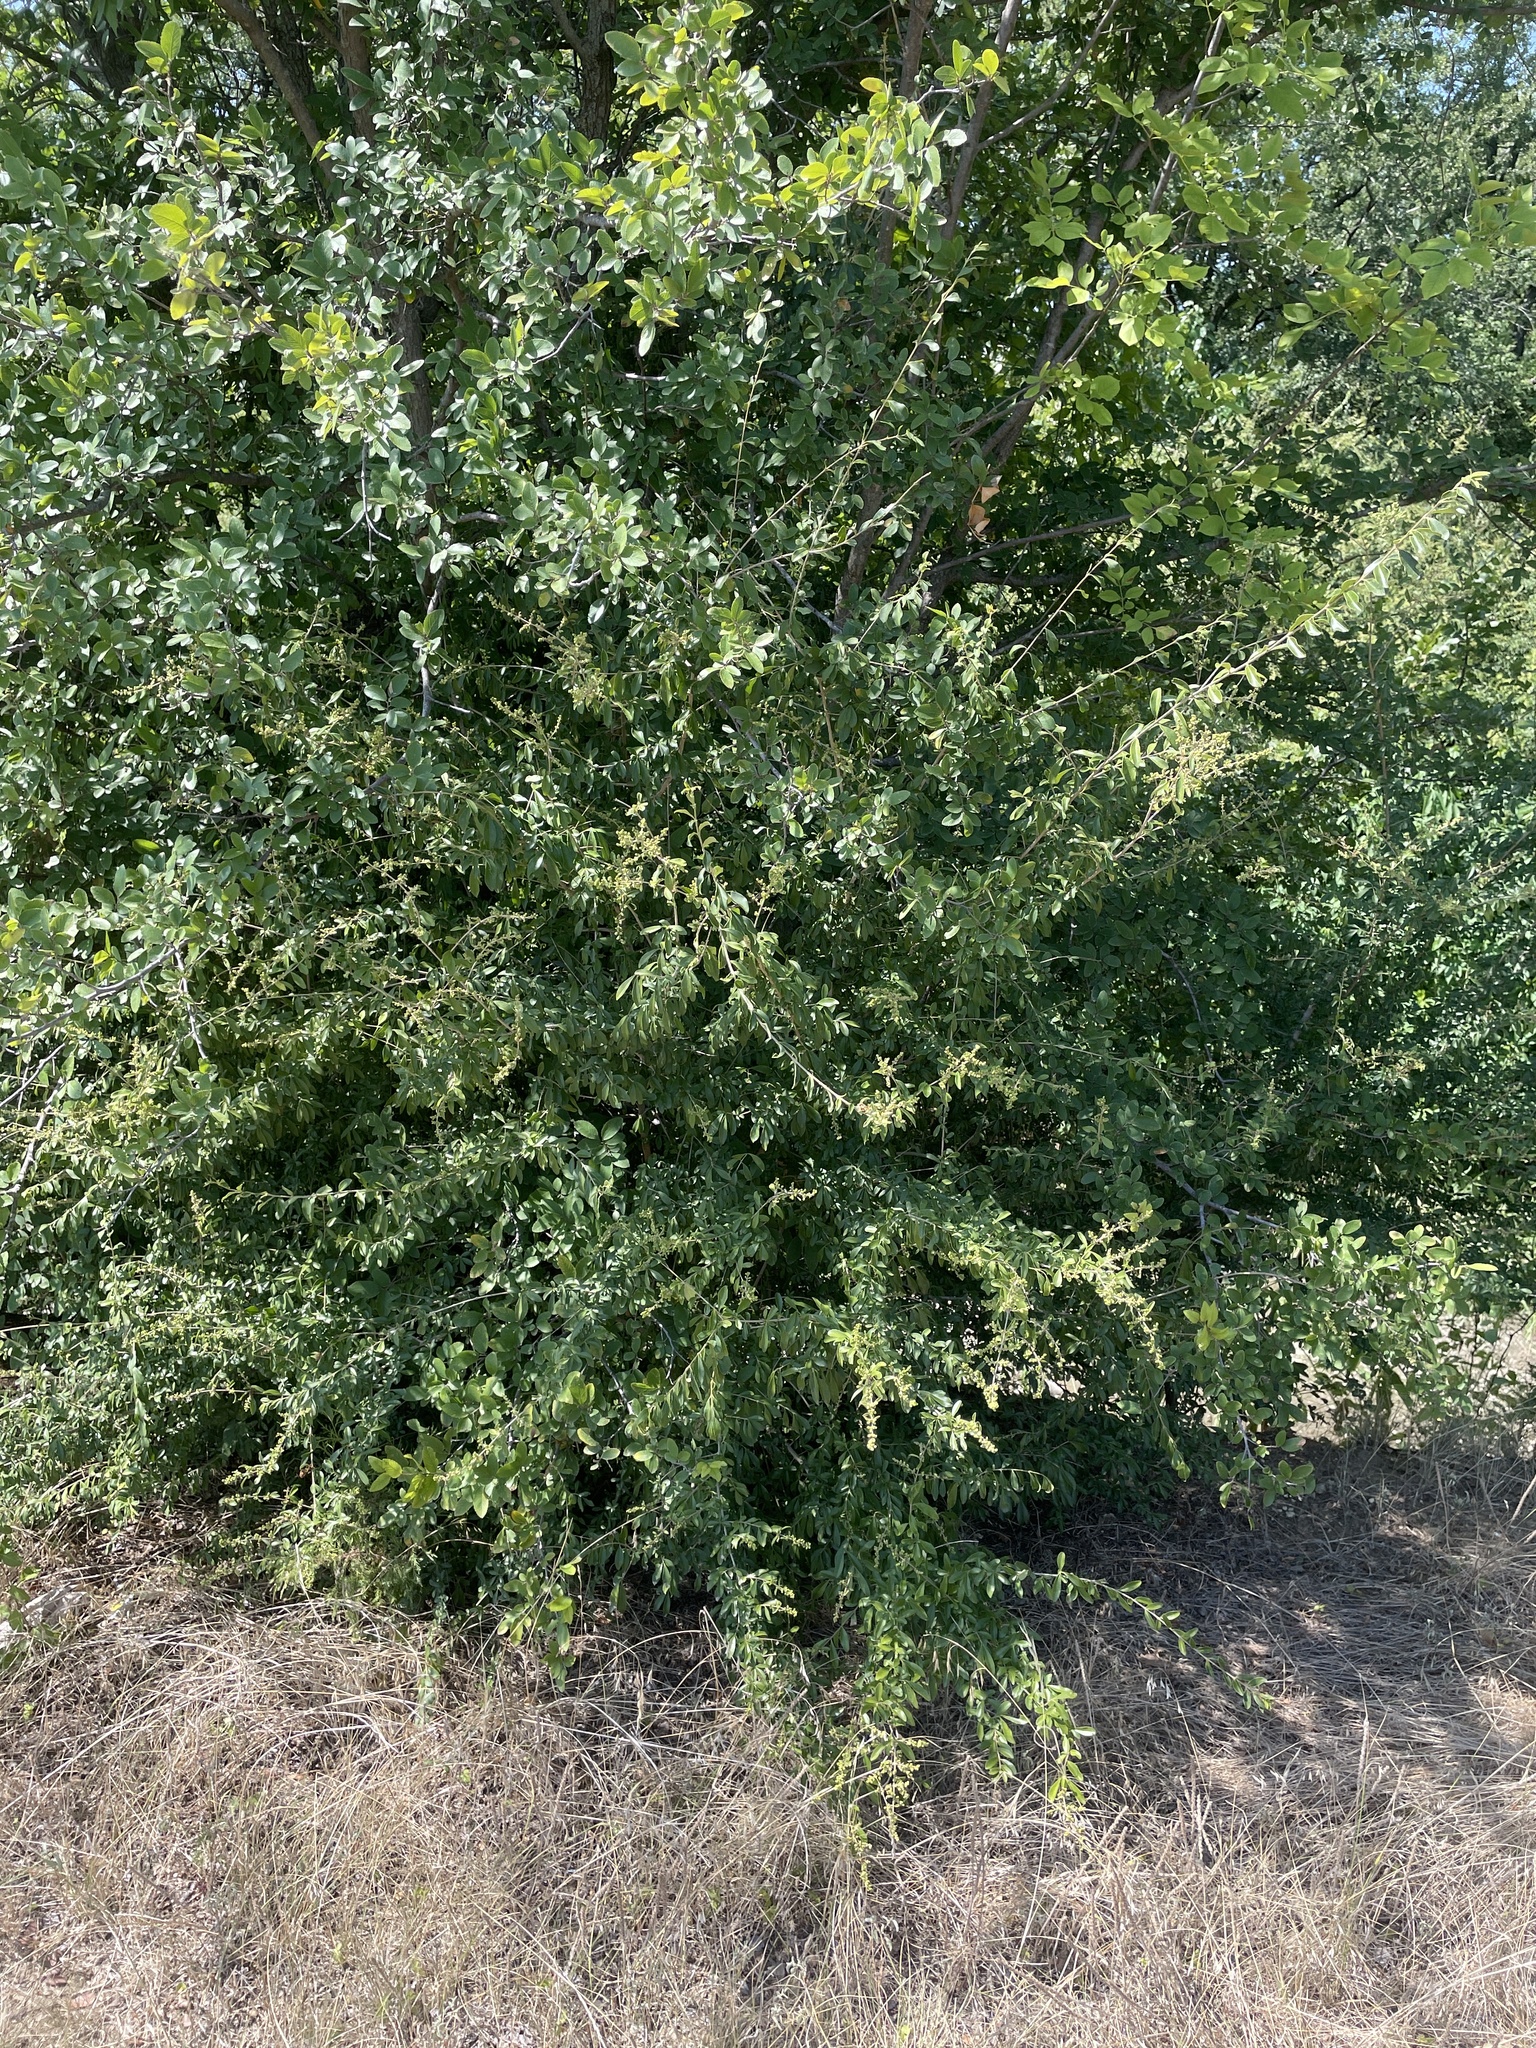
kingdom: Plantae
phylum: Tracheophyta
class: Magnoliopsida
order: Lamiales
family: Oleaceae
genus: Ligustrum
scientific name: Ligustrum quihoui
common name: Waxyleaf privet
